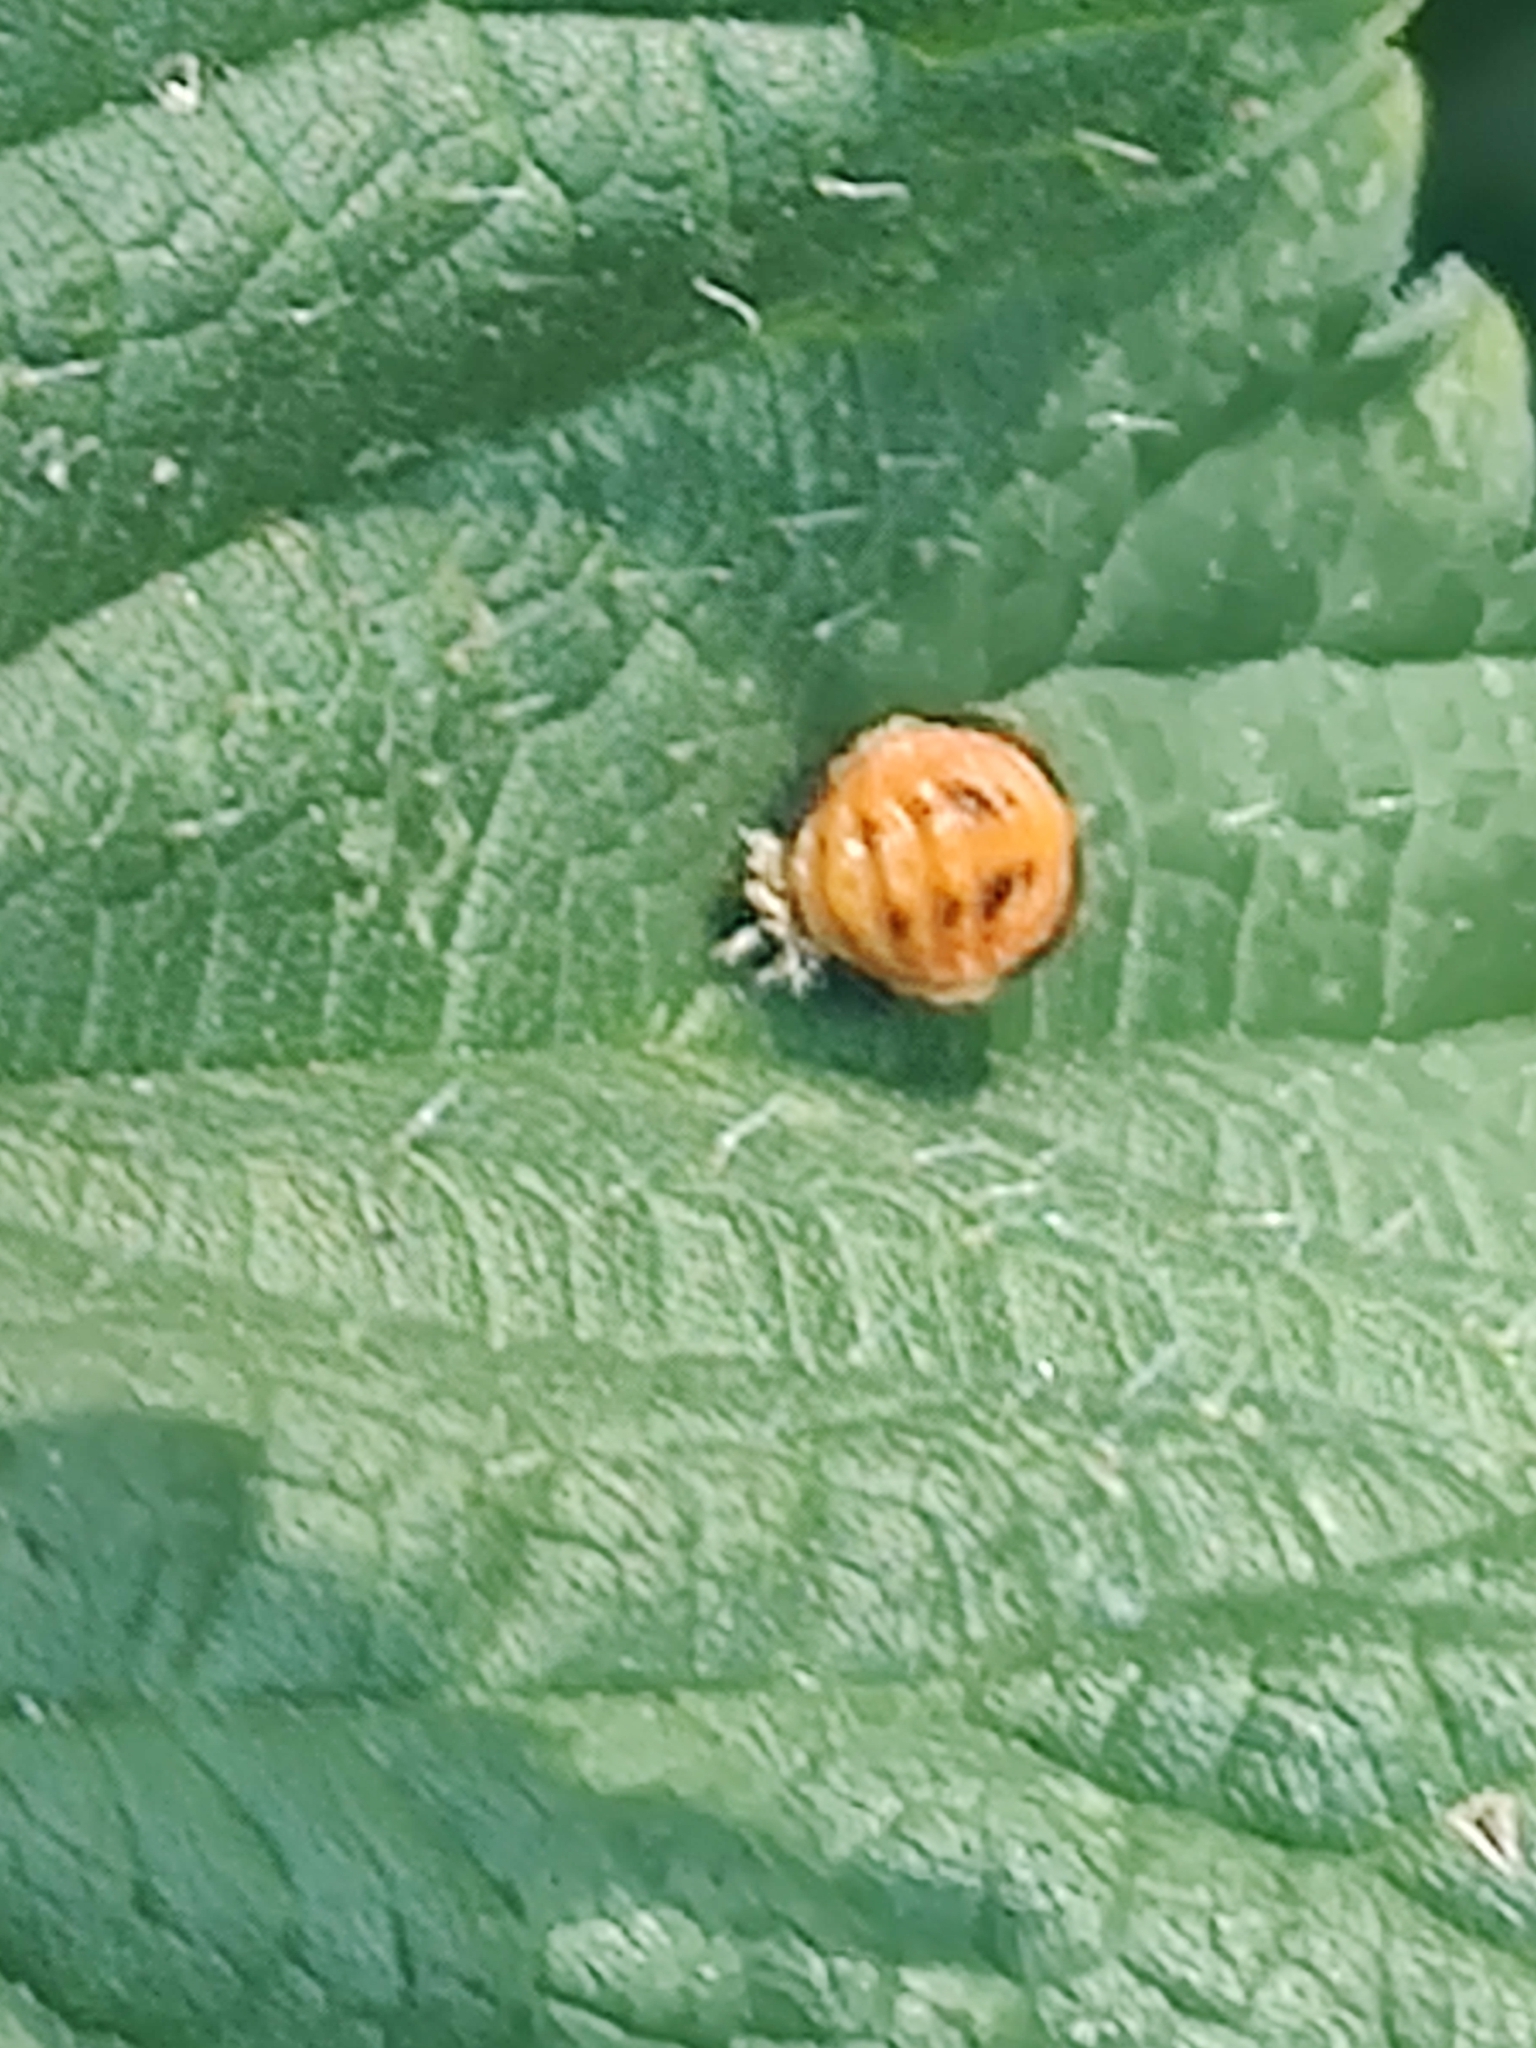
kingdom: Animalia
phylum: Arthropoda
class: Insecta
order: Coleoptera
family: Coccinellidae
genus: Harmonia
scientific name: Harmonia axyridis
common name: Harlequin ladybird
